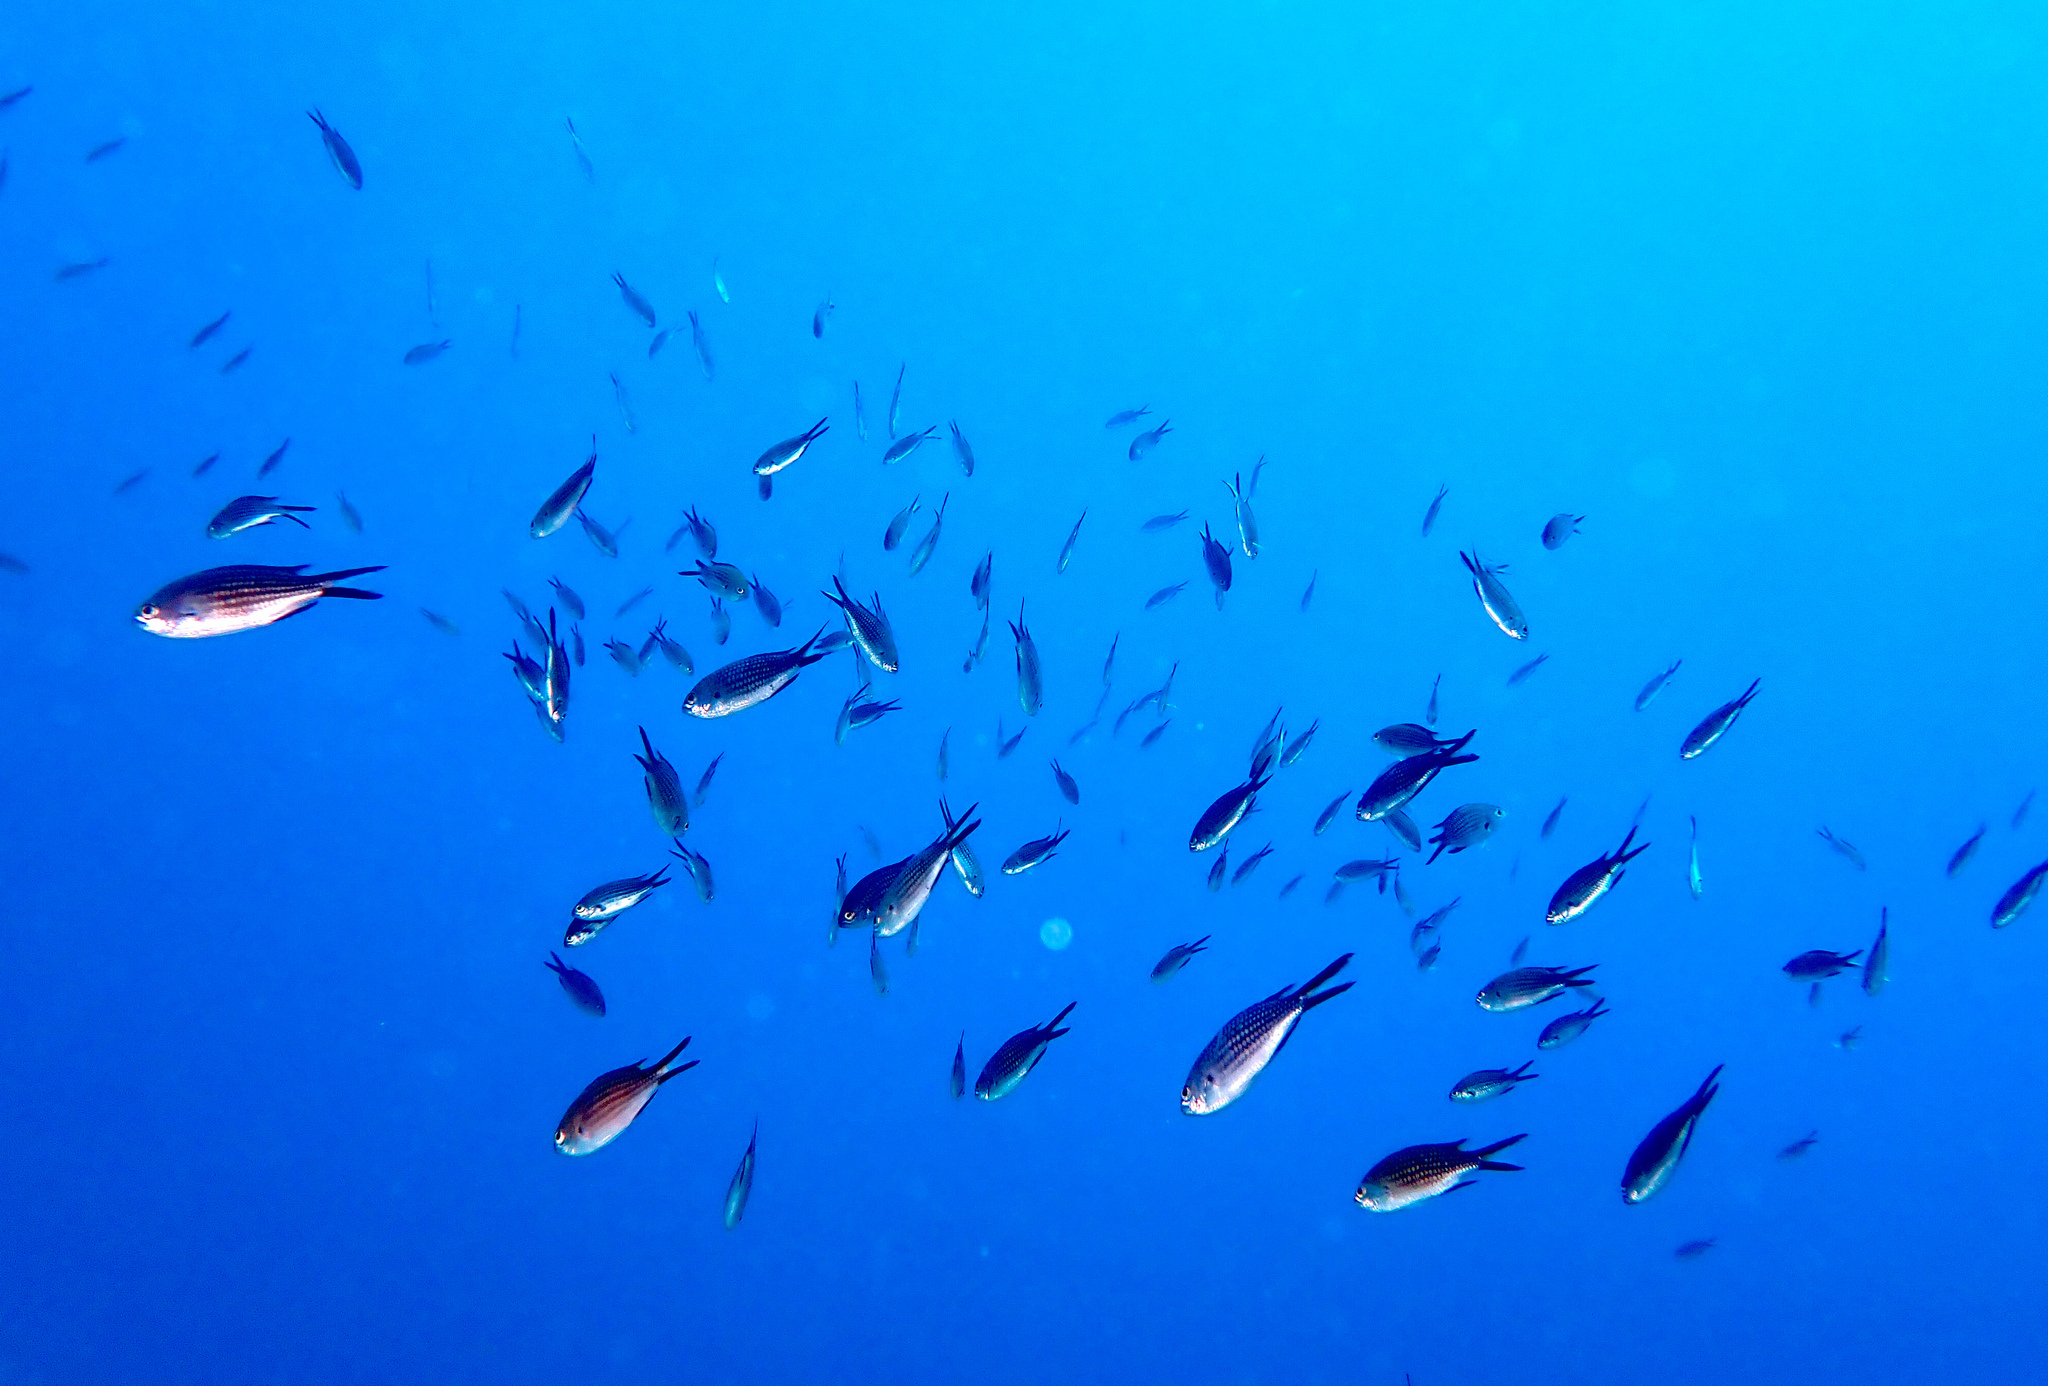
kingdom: Animalia
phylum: Chordata
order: Perciformes
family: Pomacentridae
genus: Chromis
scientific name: Chromis chromis
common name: Damselfish
